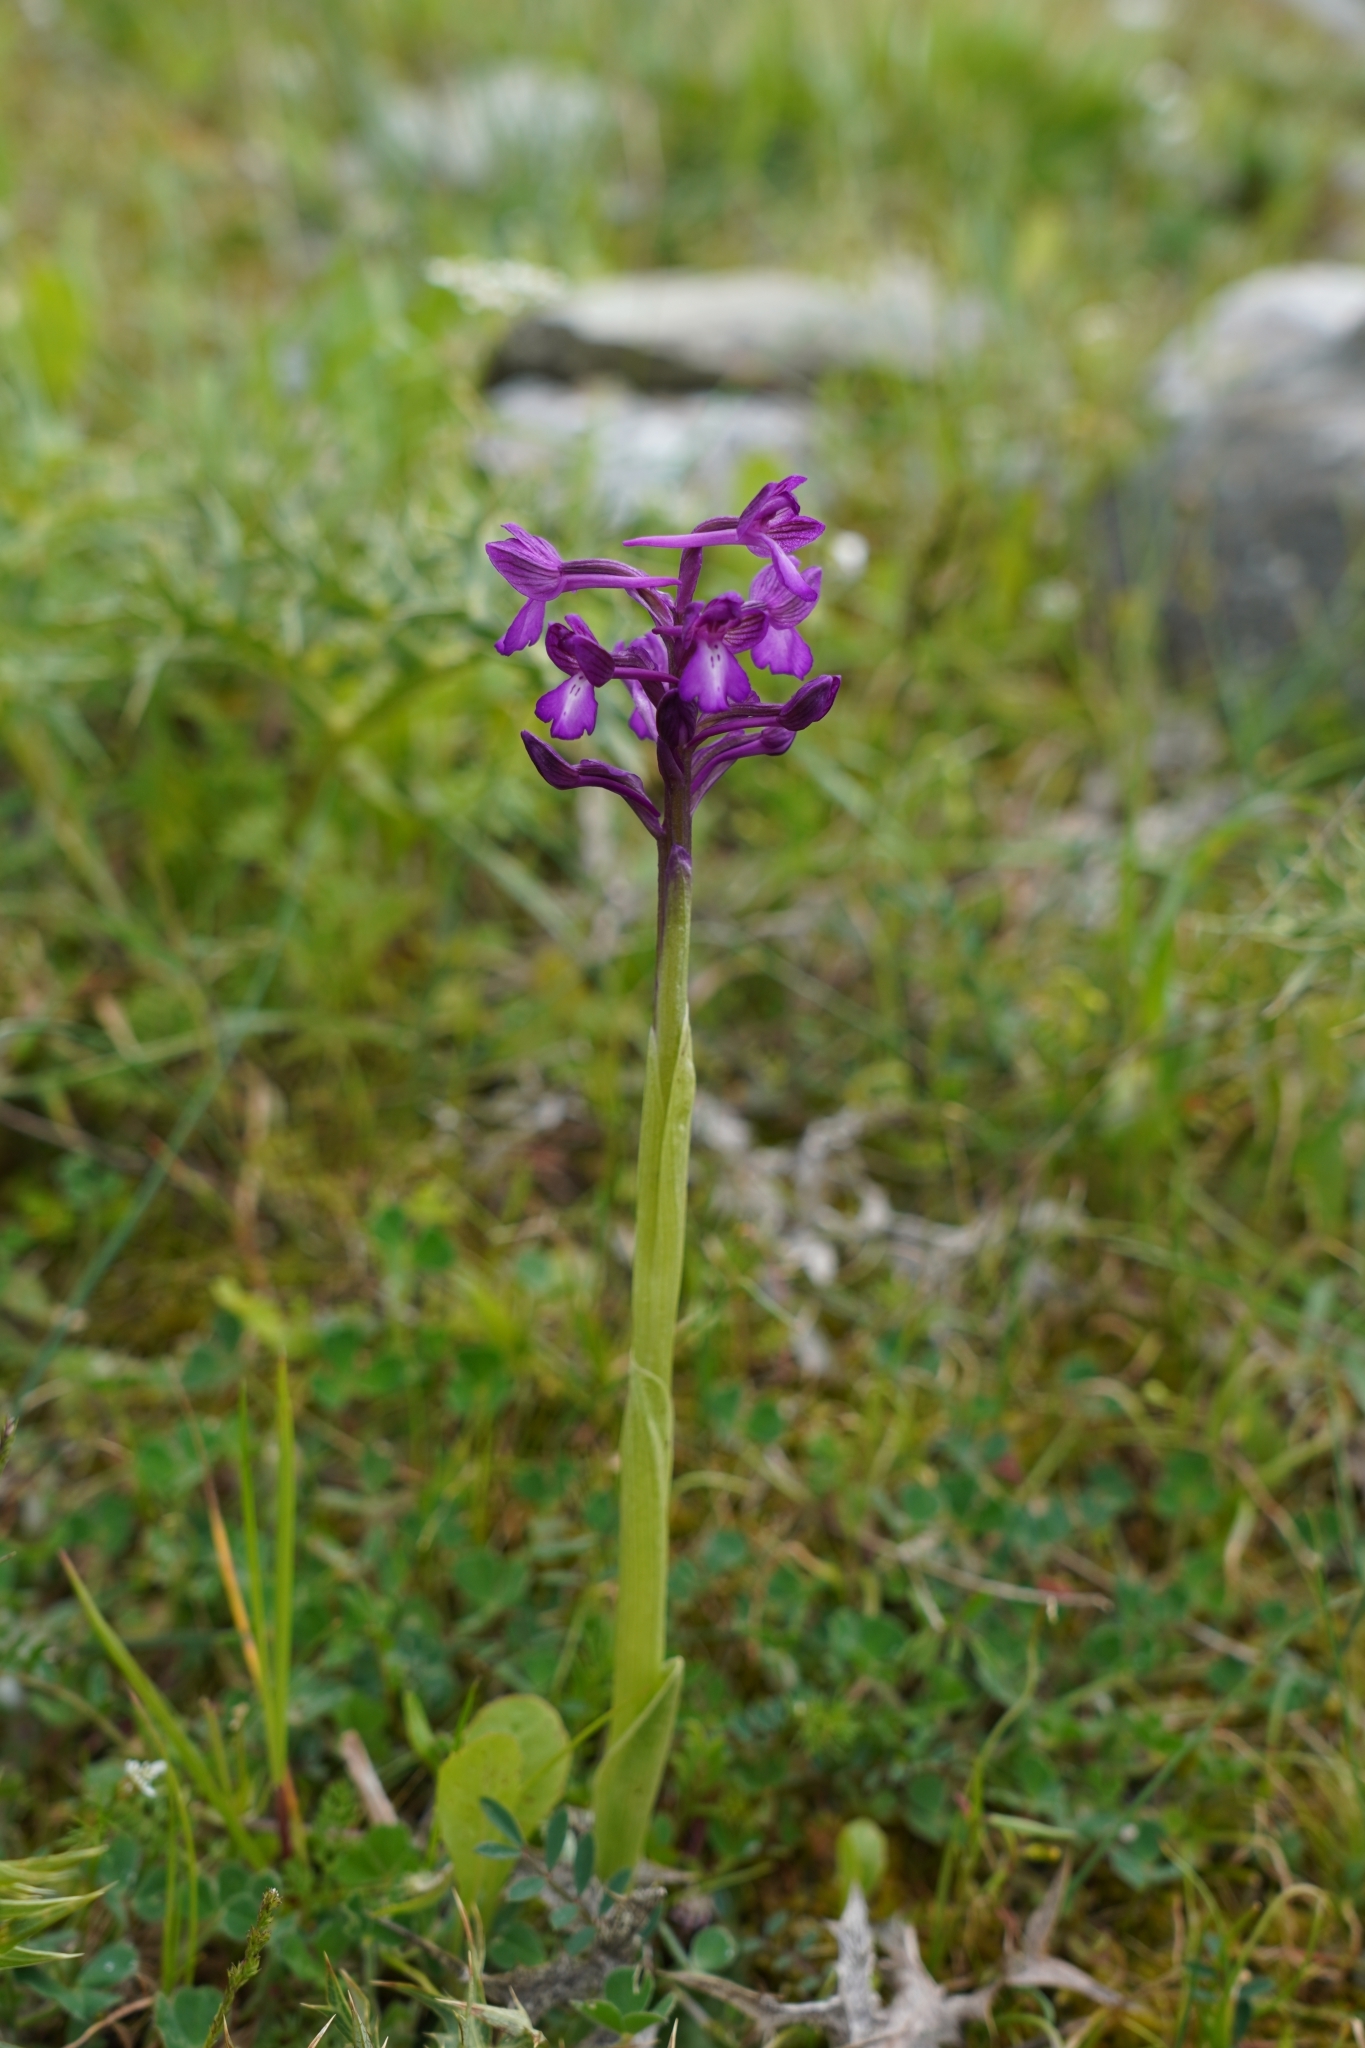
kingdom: Plantae
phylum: Tracheophyta
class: Liliopsida
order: Asparagales
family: Orchidaceae
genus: Anacamptis
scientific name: Anacamptis boryi
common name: Bory's anacamptis
